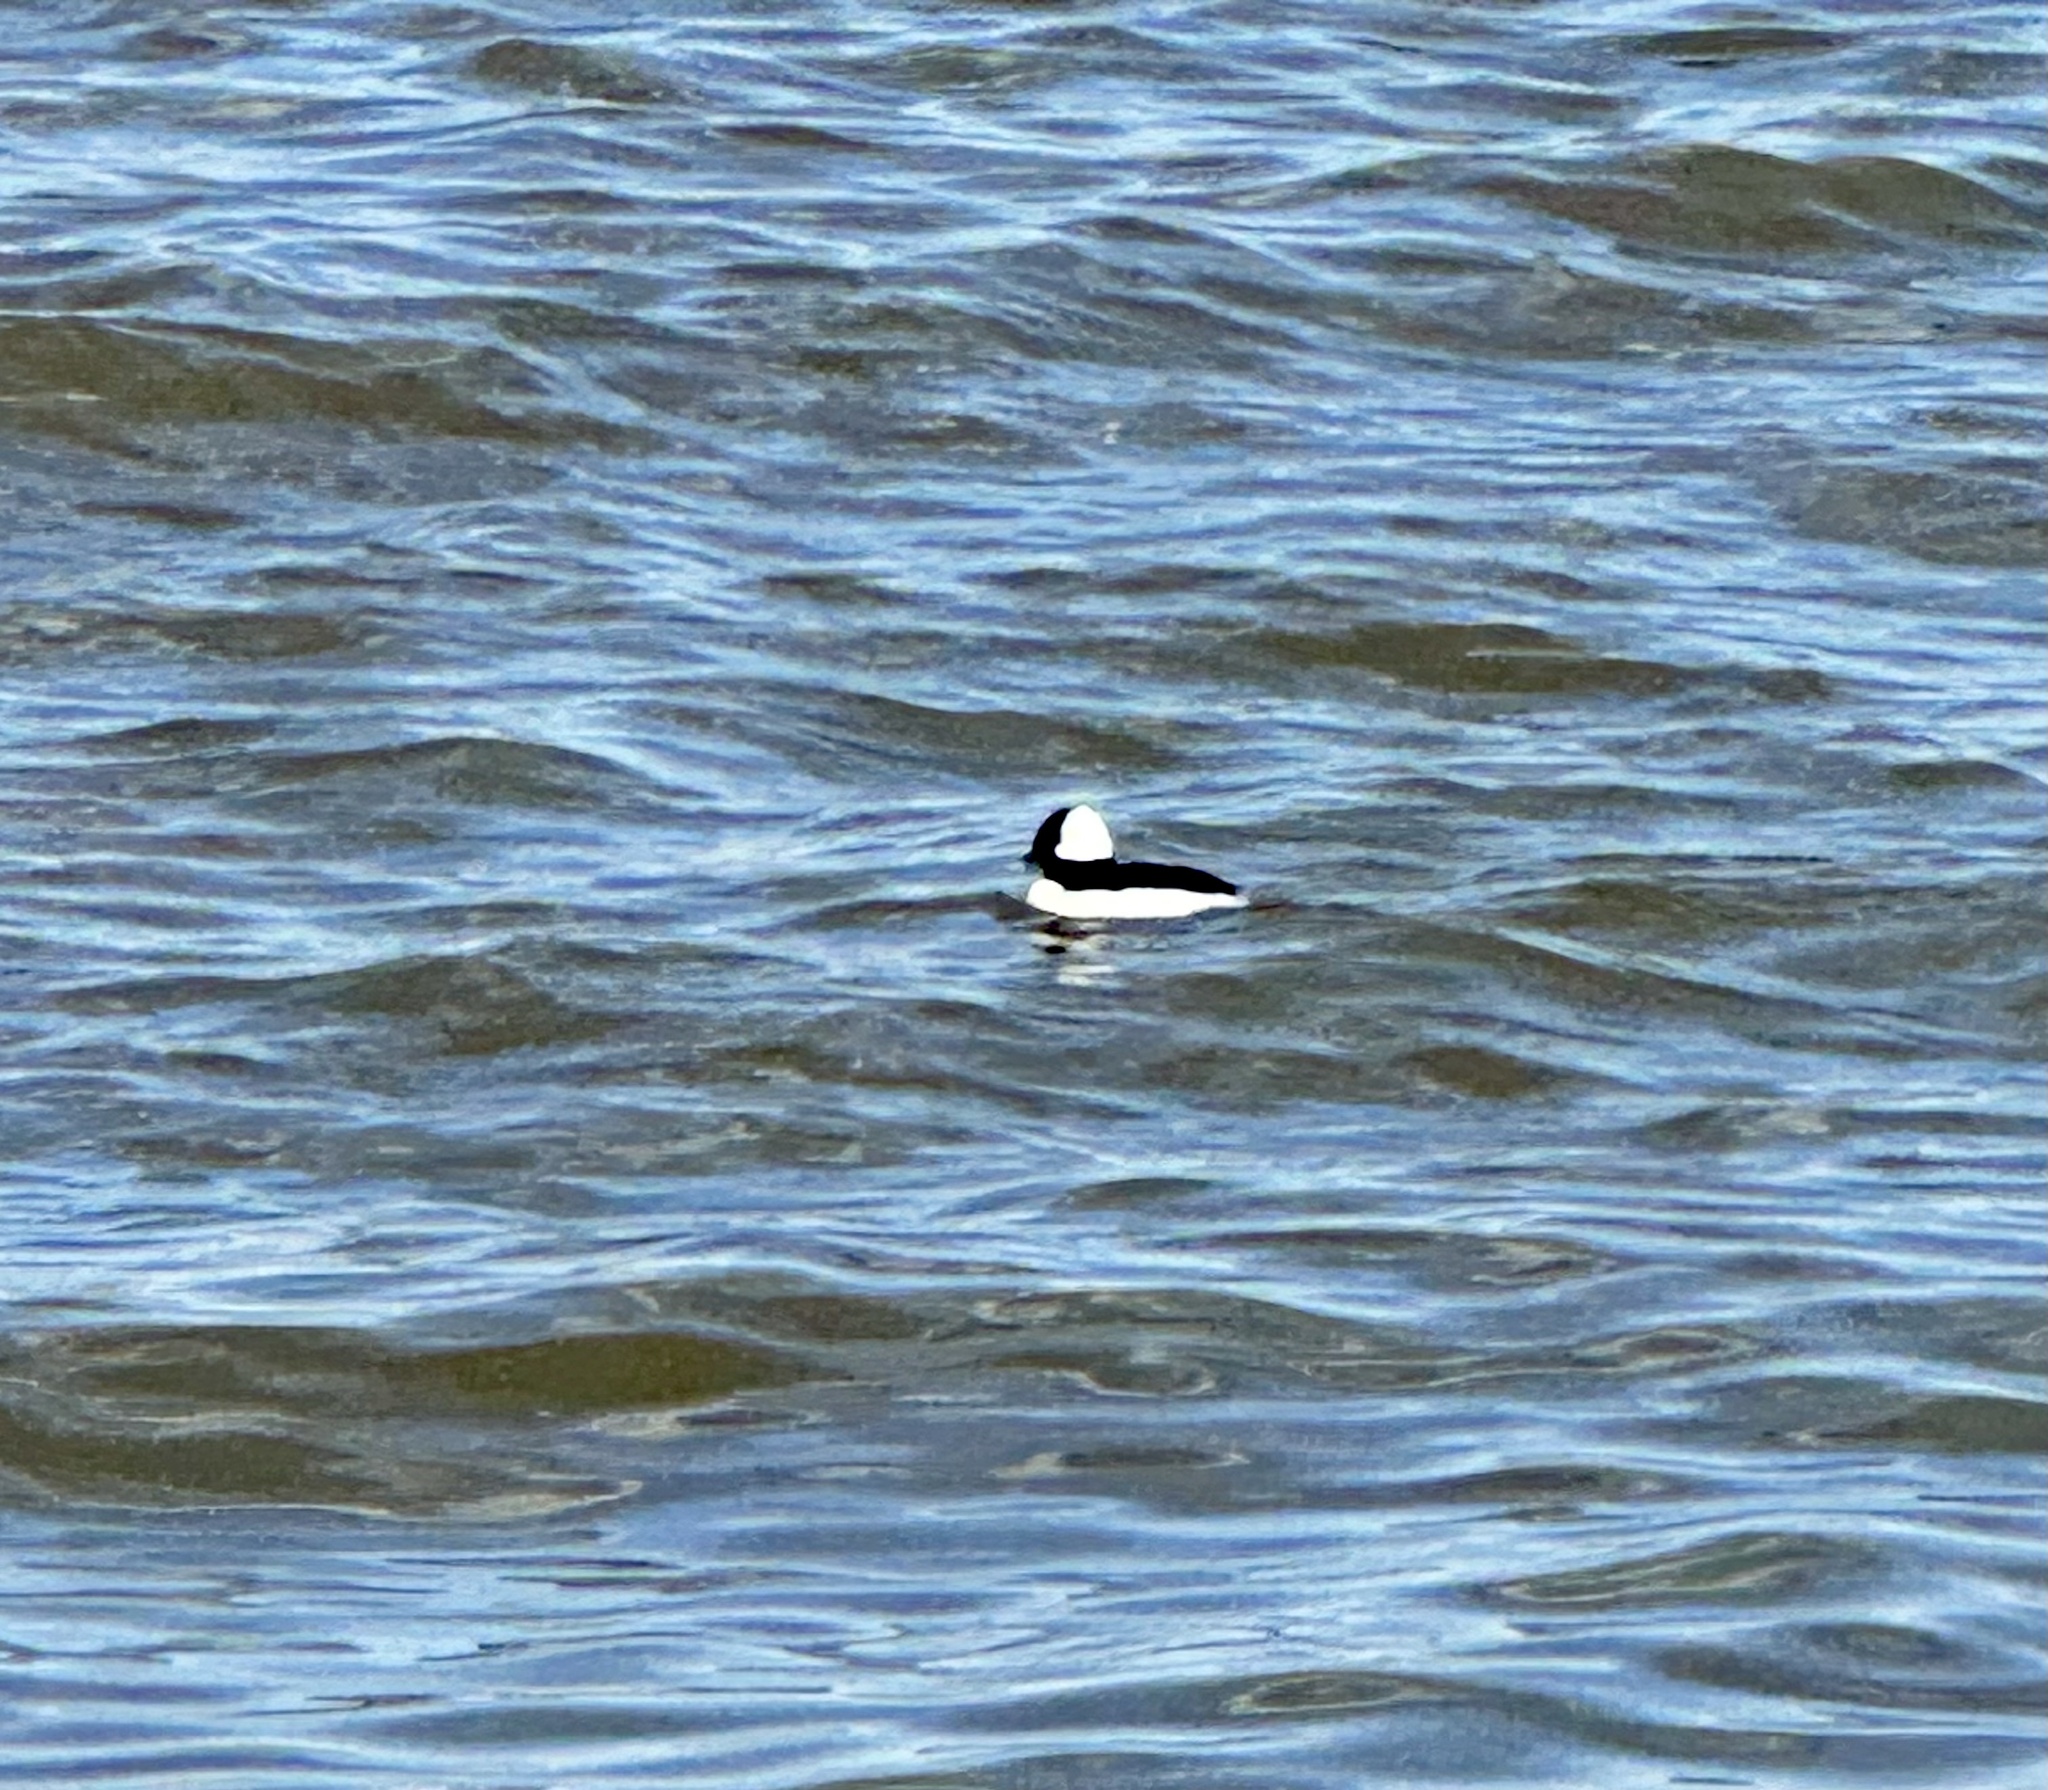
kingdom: Animalia
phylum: Chordata
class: Aves
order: Anseriformes
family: Anatidae
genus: Bucephala
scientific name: Bucephala albeola
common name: Bufflehead
